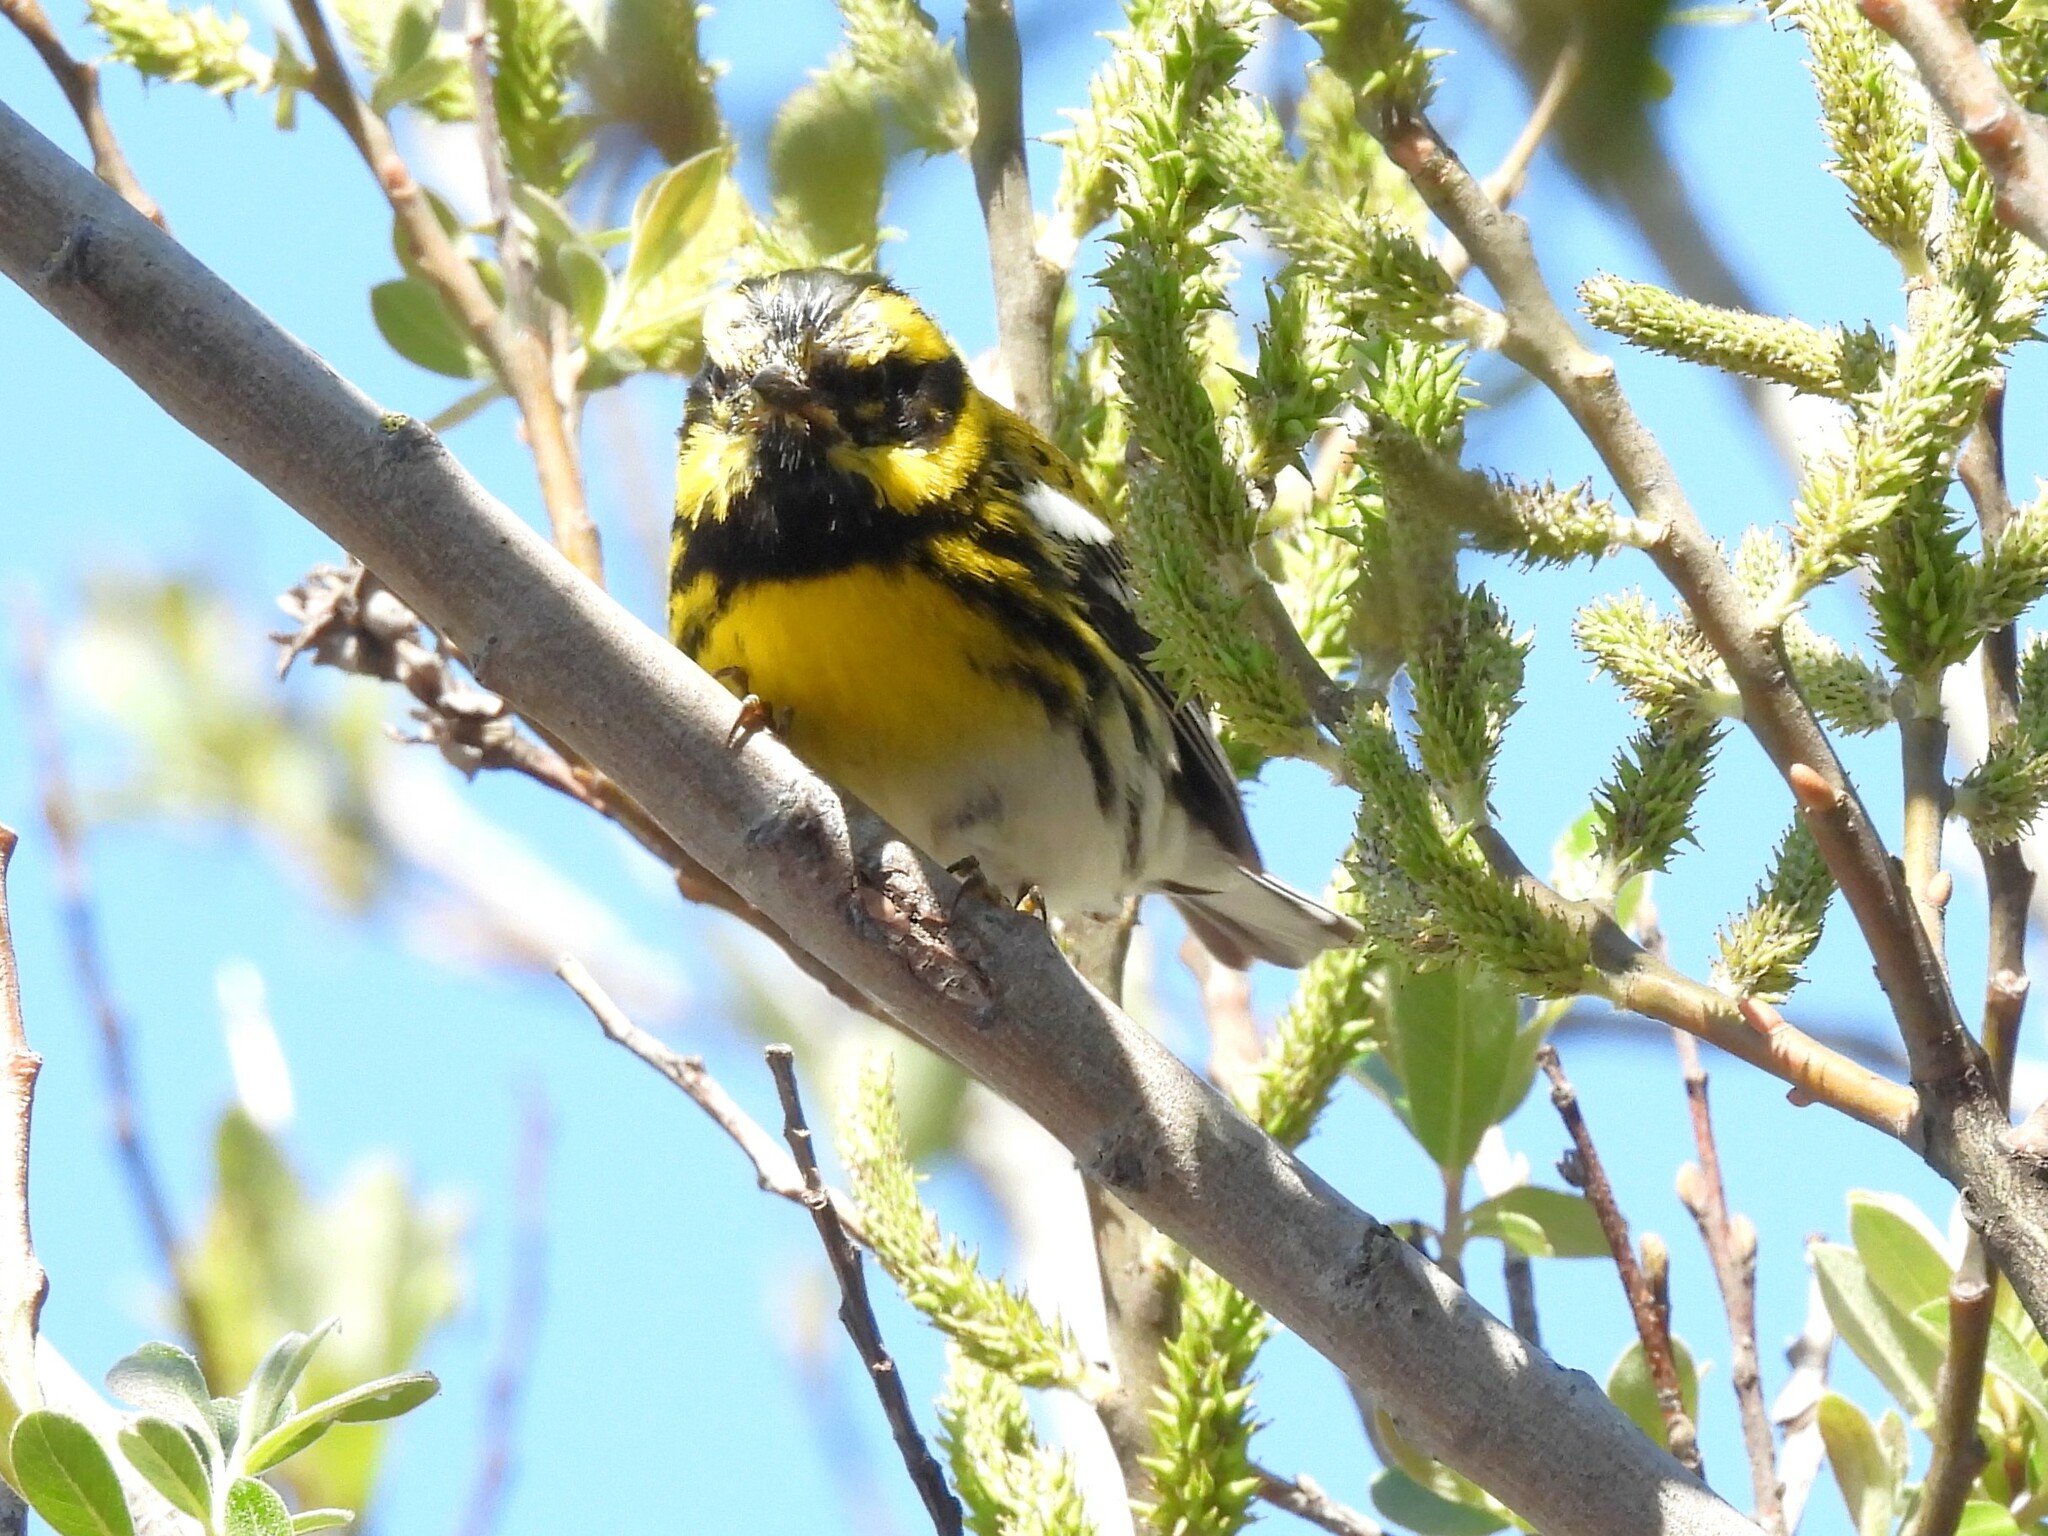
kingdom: Animalia
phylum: Chordata
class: Aves
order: Passeriformes
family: Parulidae
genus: Setophaga
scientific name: Setophaga townsendi
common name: Townsend's warbler
